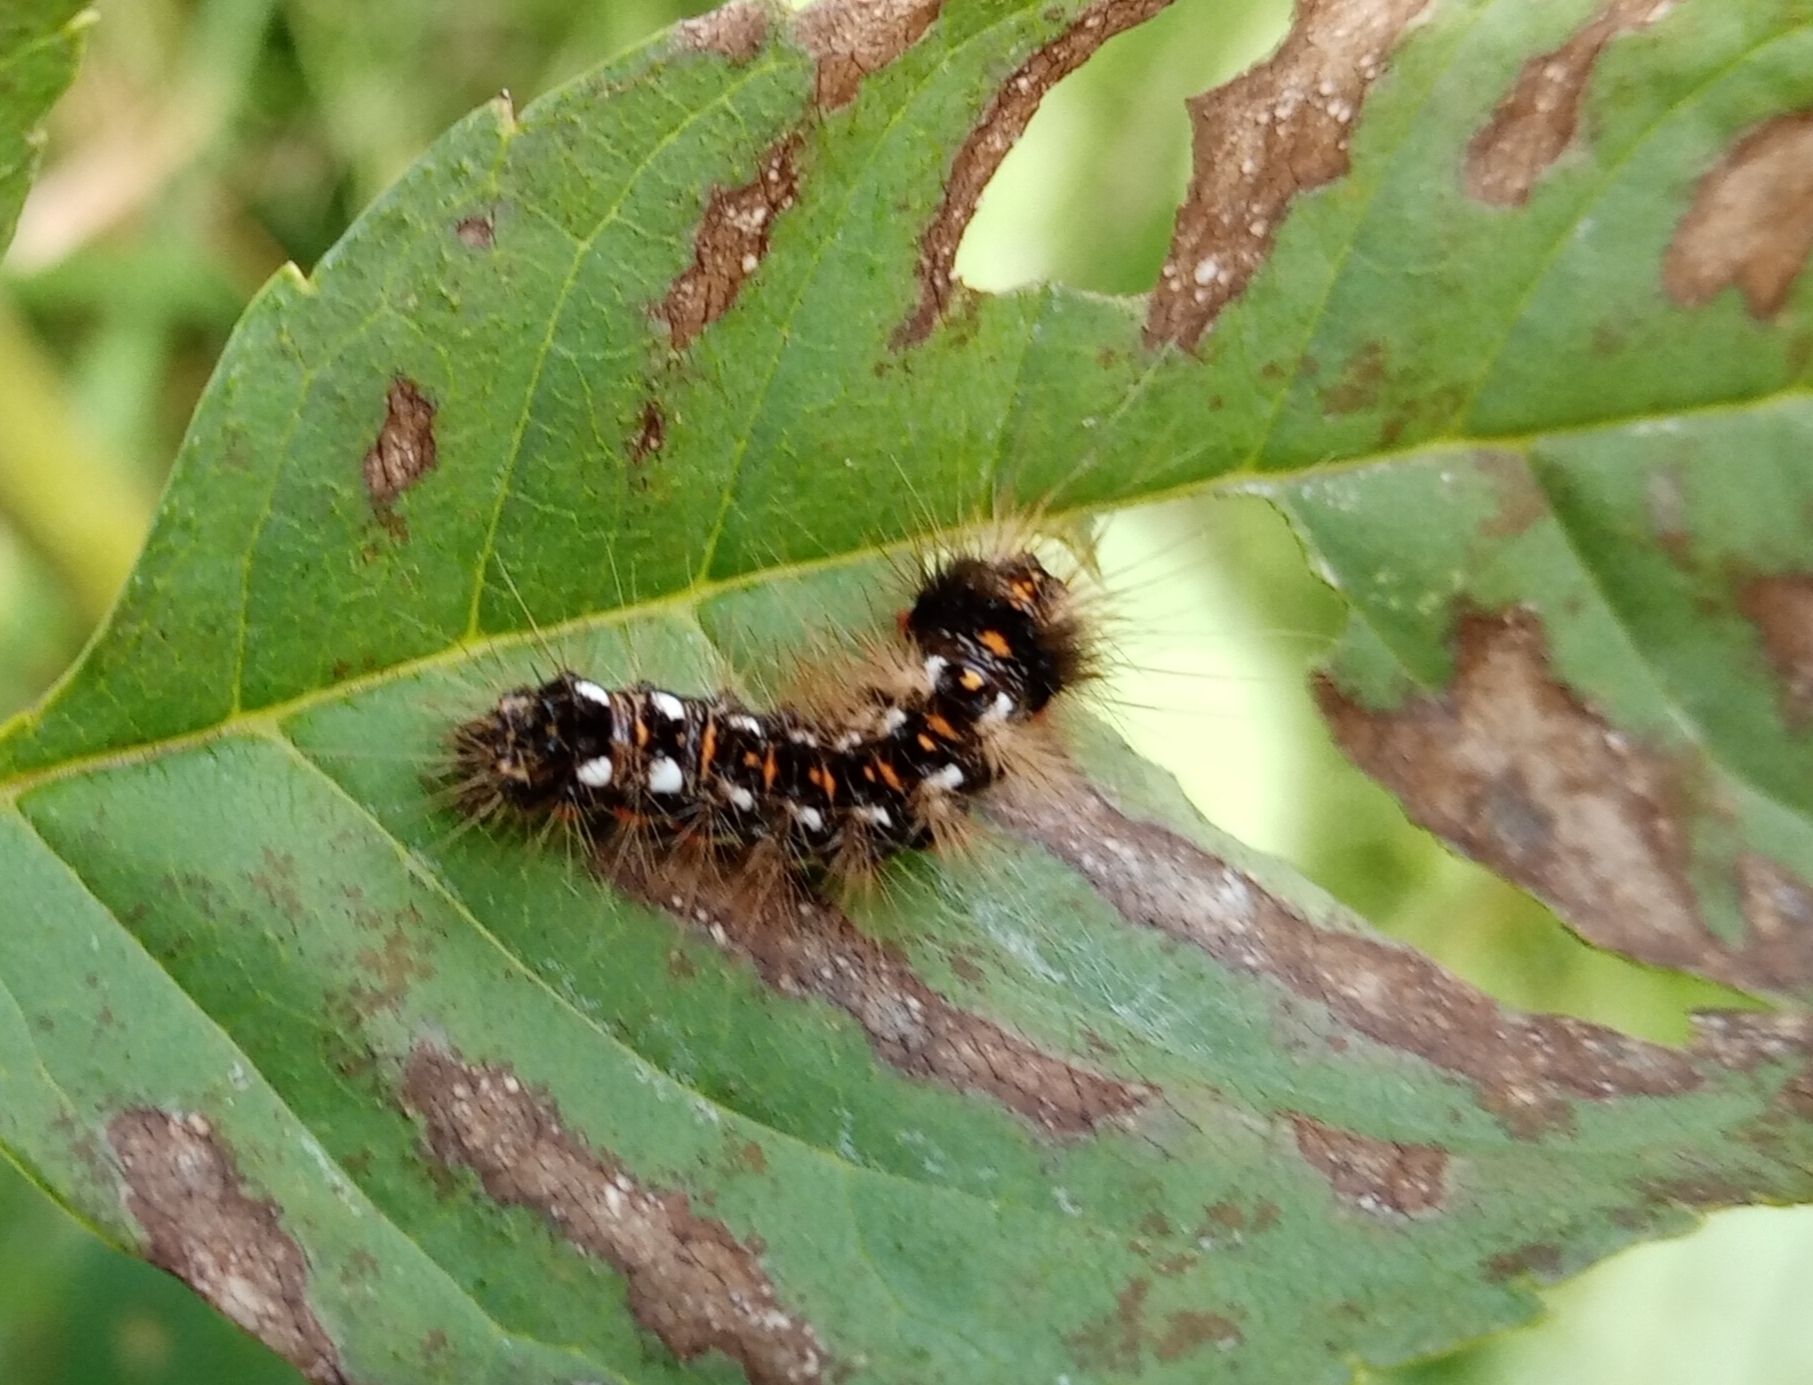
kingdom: Animalia
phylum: Arthropoda
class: Insecta
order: Lepidoptera
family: Noctuidae
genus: Acronicta
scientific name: Acronicta rumicis
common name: Knot grass
